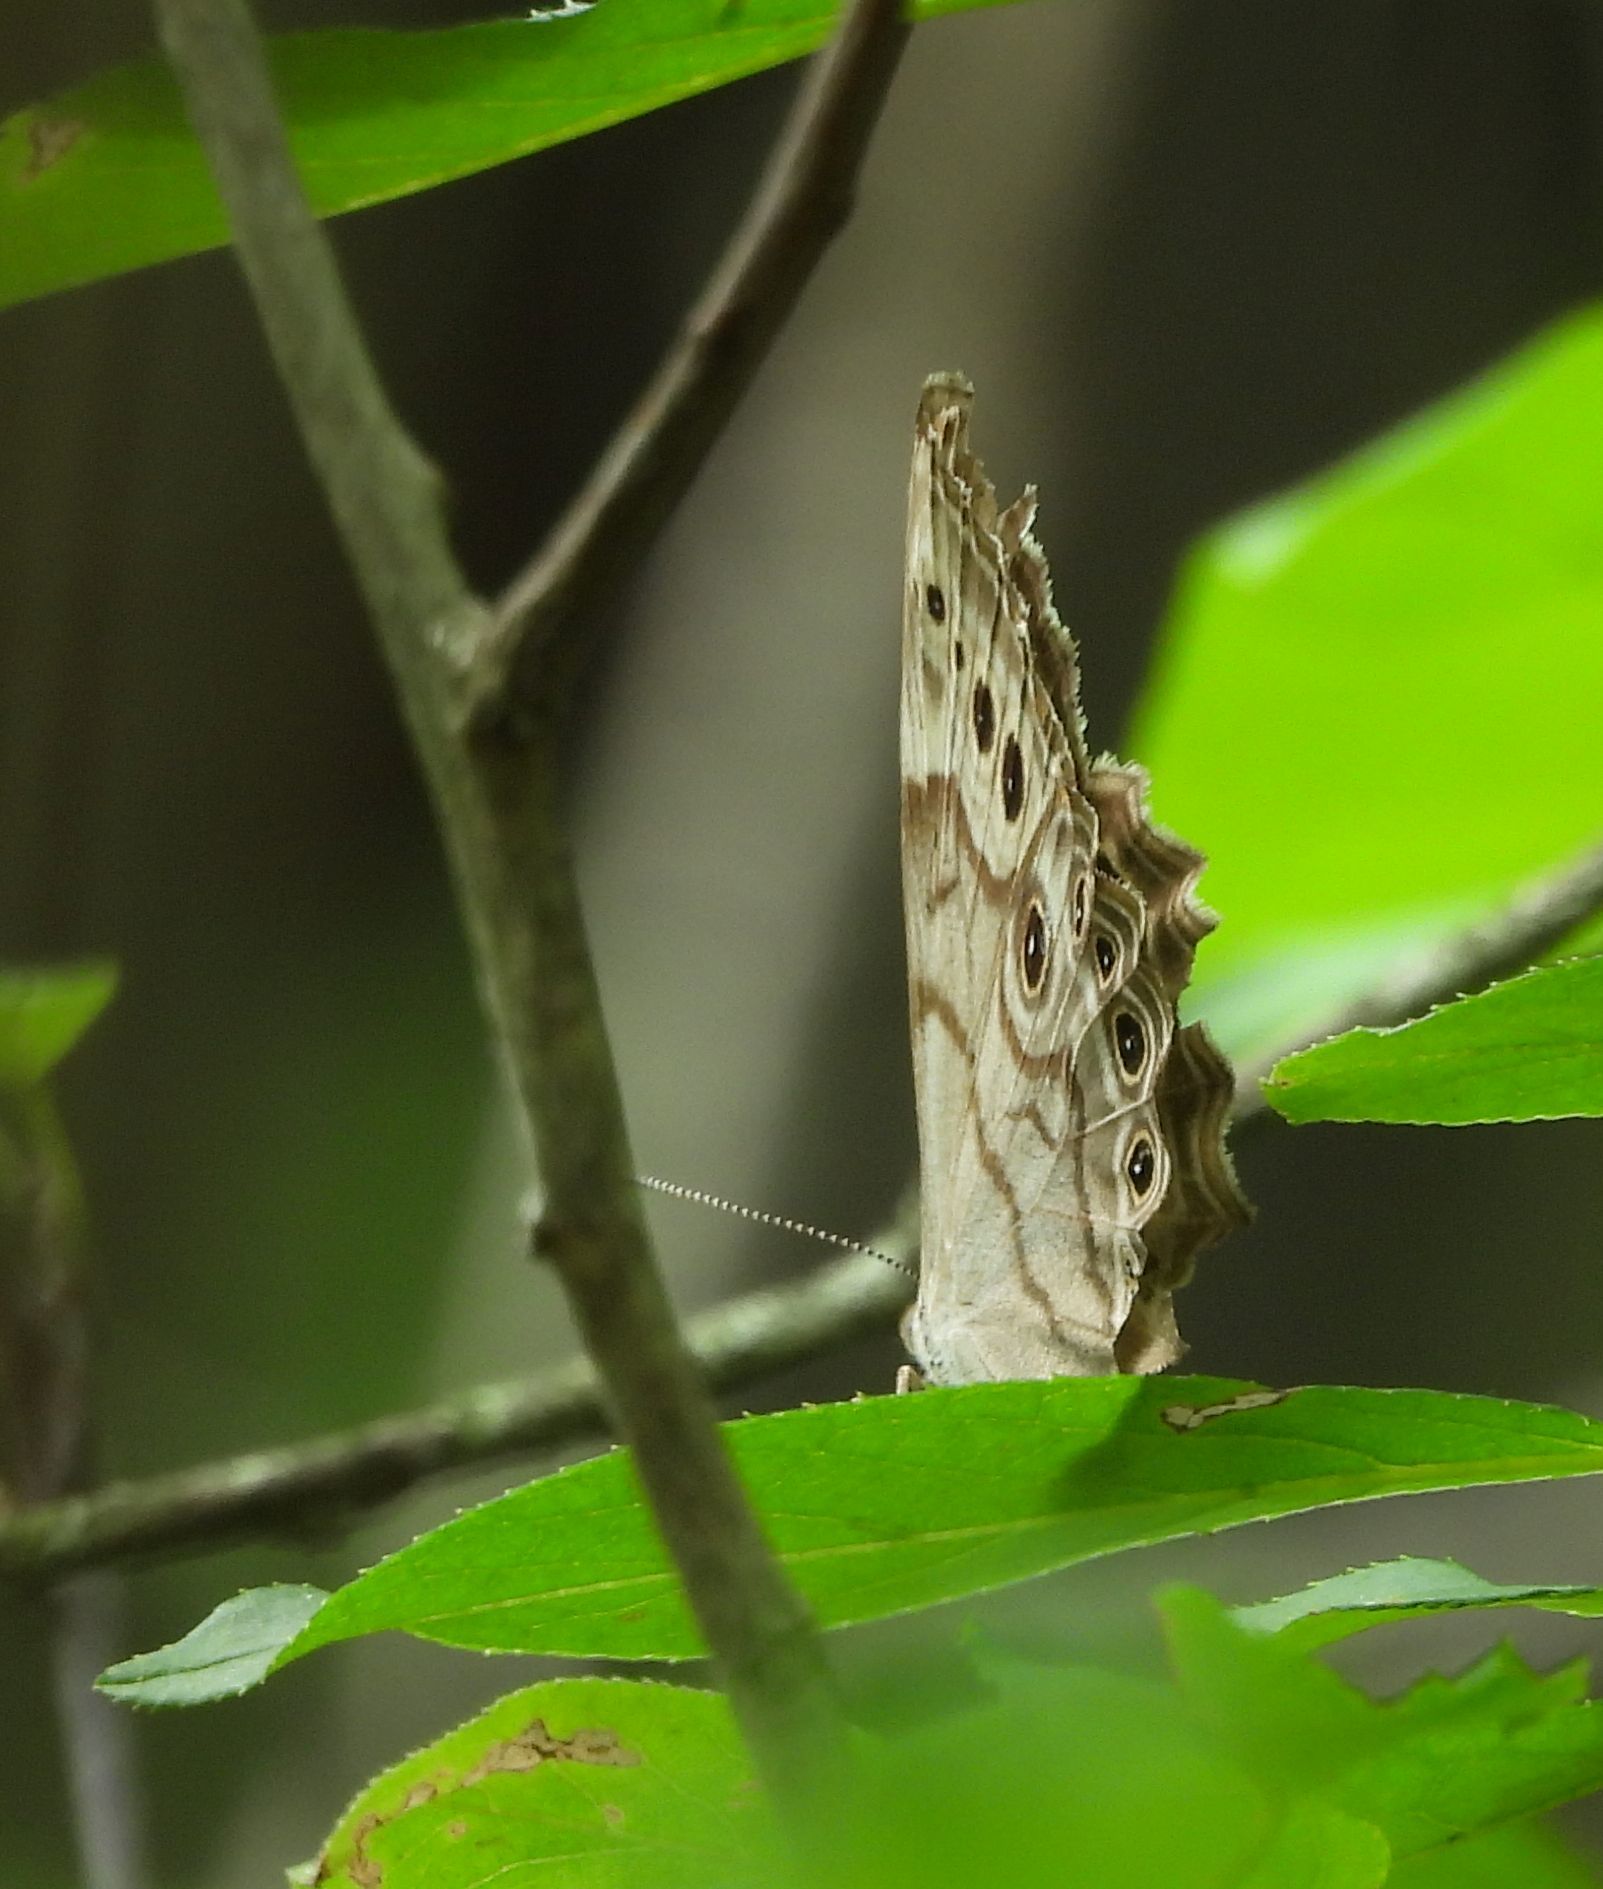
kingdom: Animalia
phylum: Arthropoda
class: Insecta
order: Lepidoptera
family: Nymphalidae
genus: Lethe
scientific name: Lethe anthedon
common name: Northern pearly-eye
